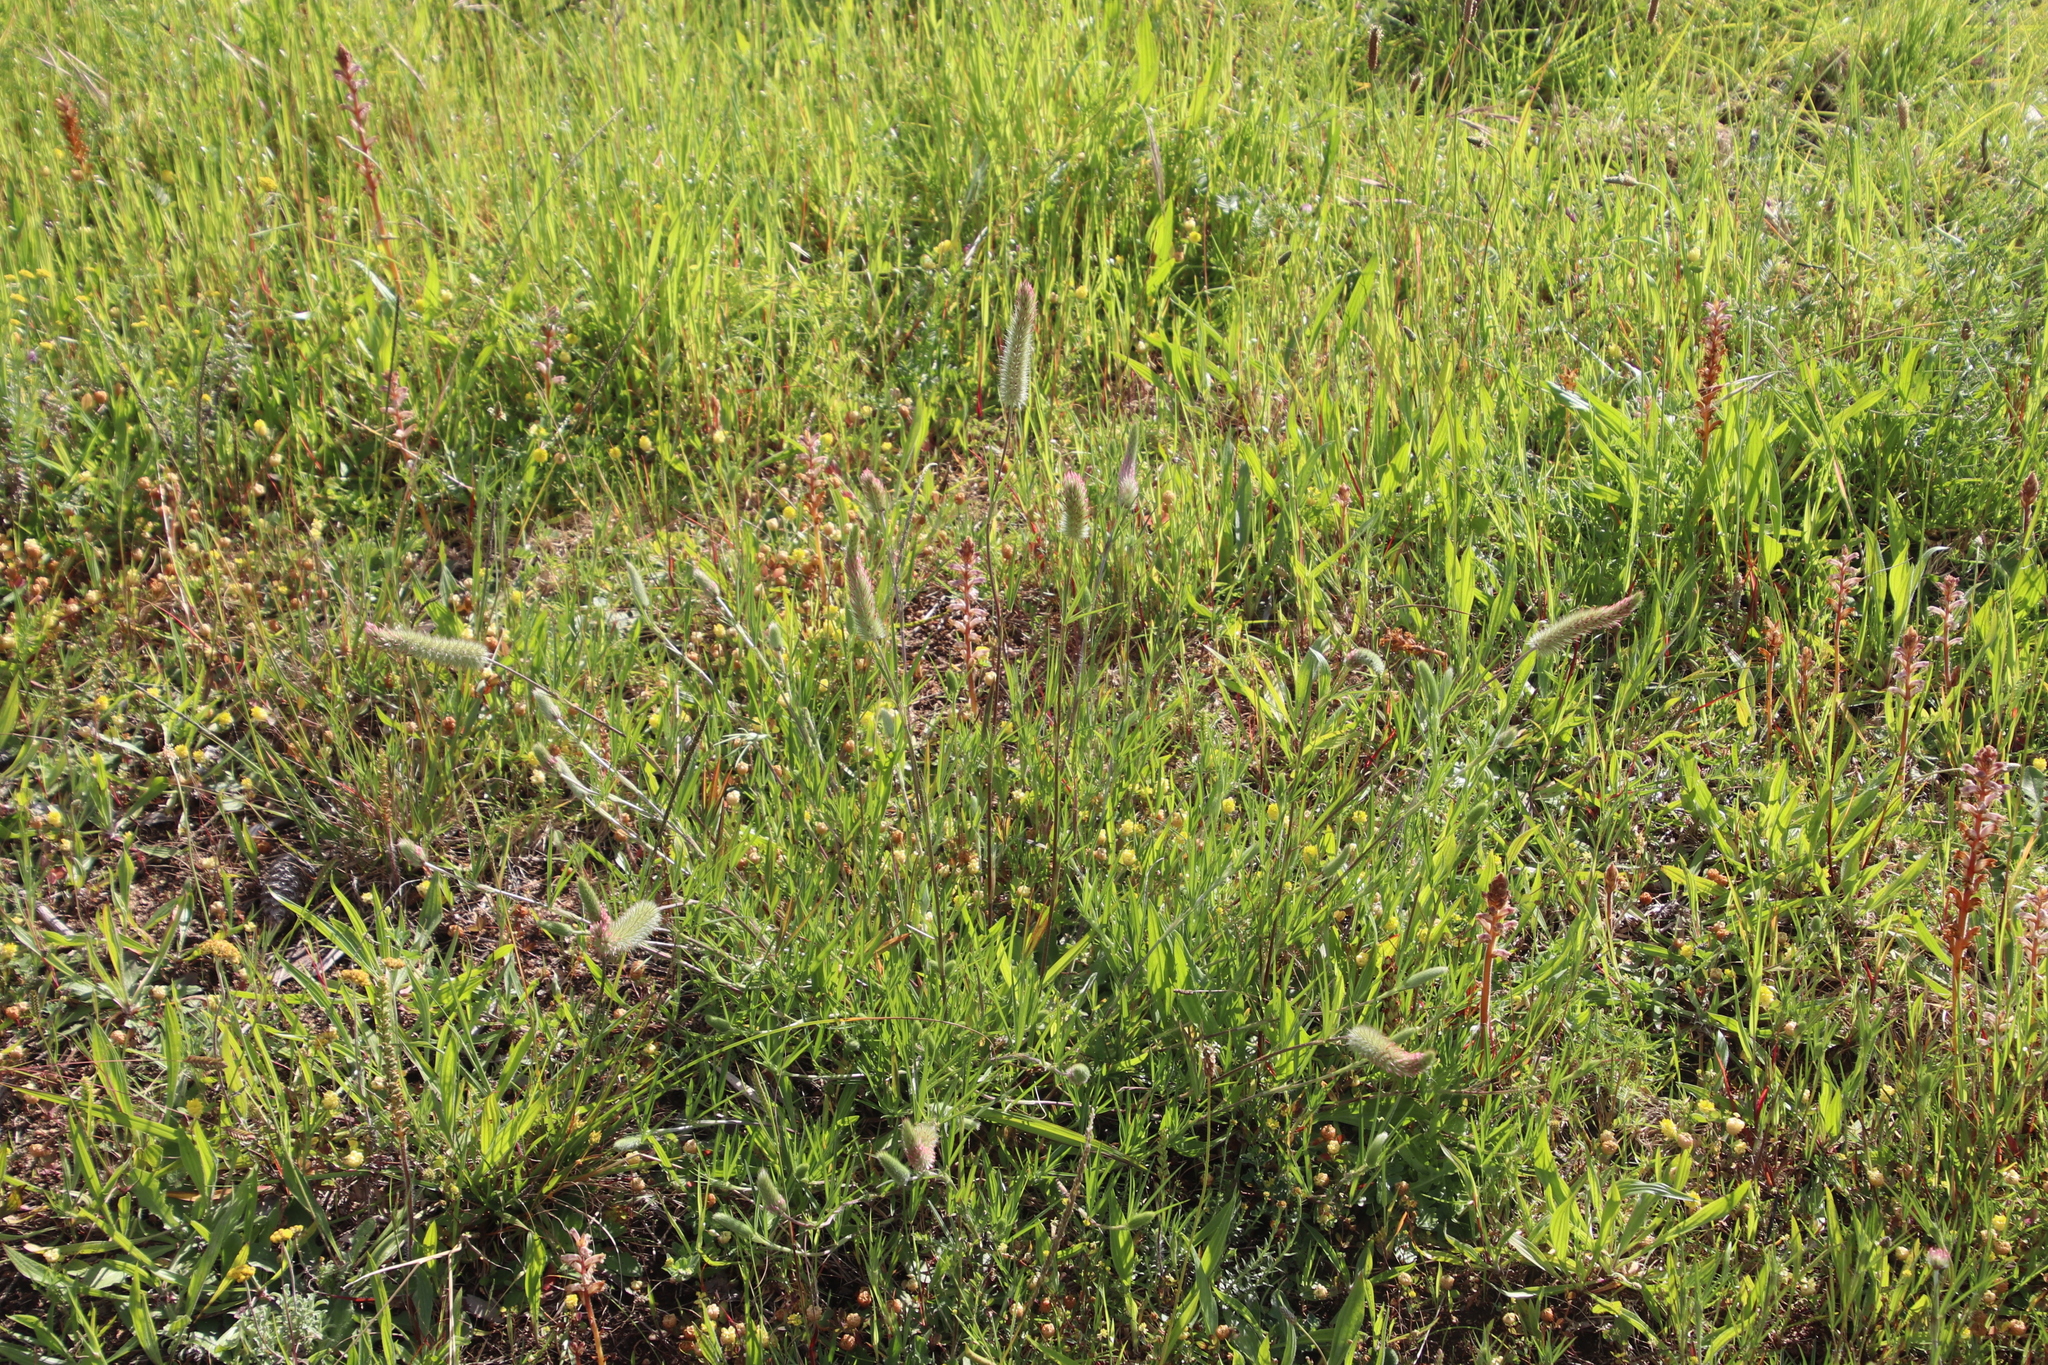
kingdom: Plantae
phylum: Tracheophyta
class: Magnoliopsida
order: Fabales
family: Fabaceae
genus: Trifolium
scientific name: Trifolium angustifolium
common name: Narrow clover
